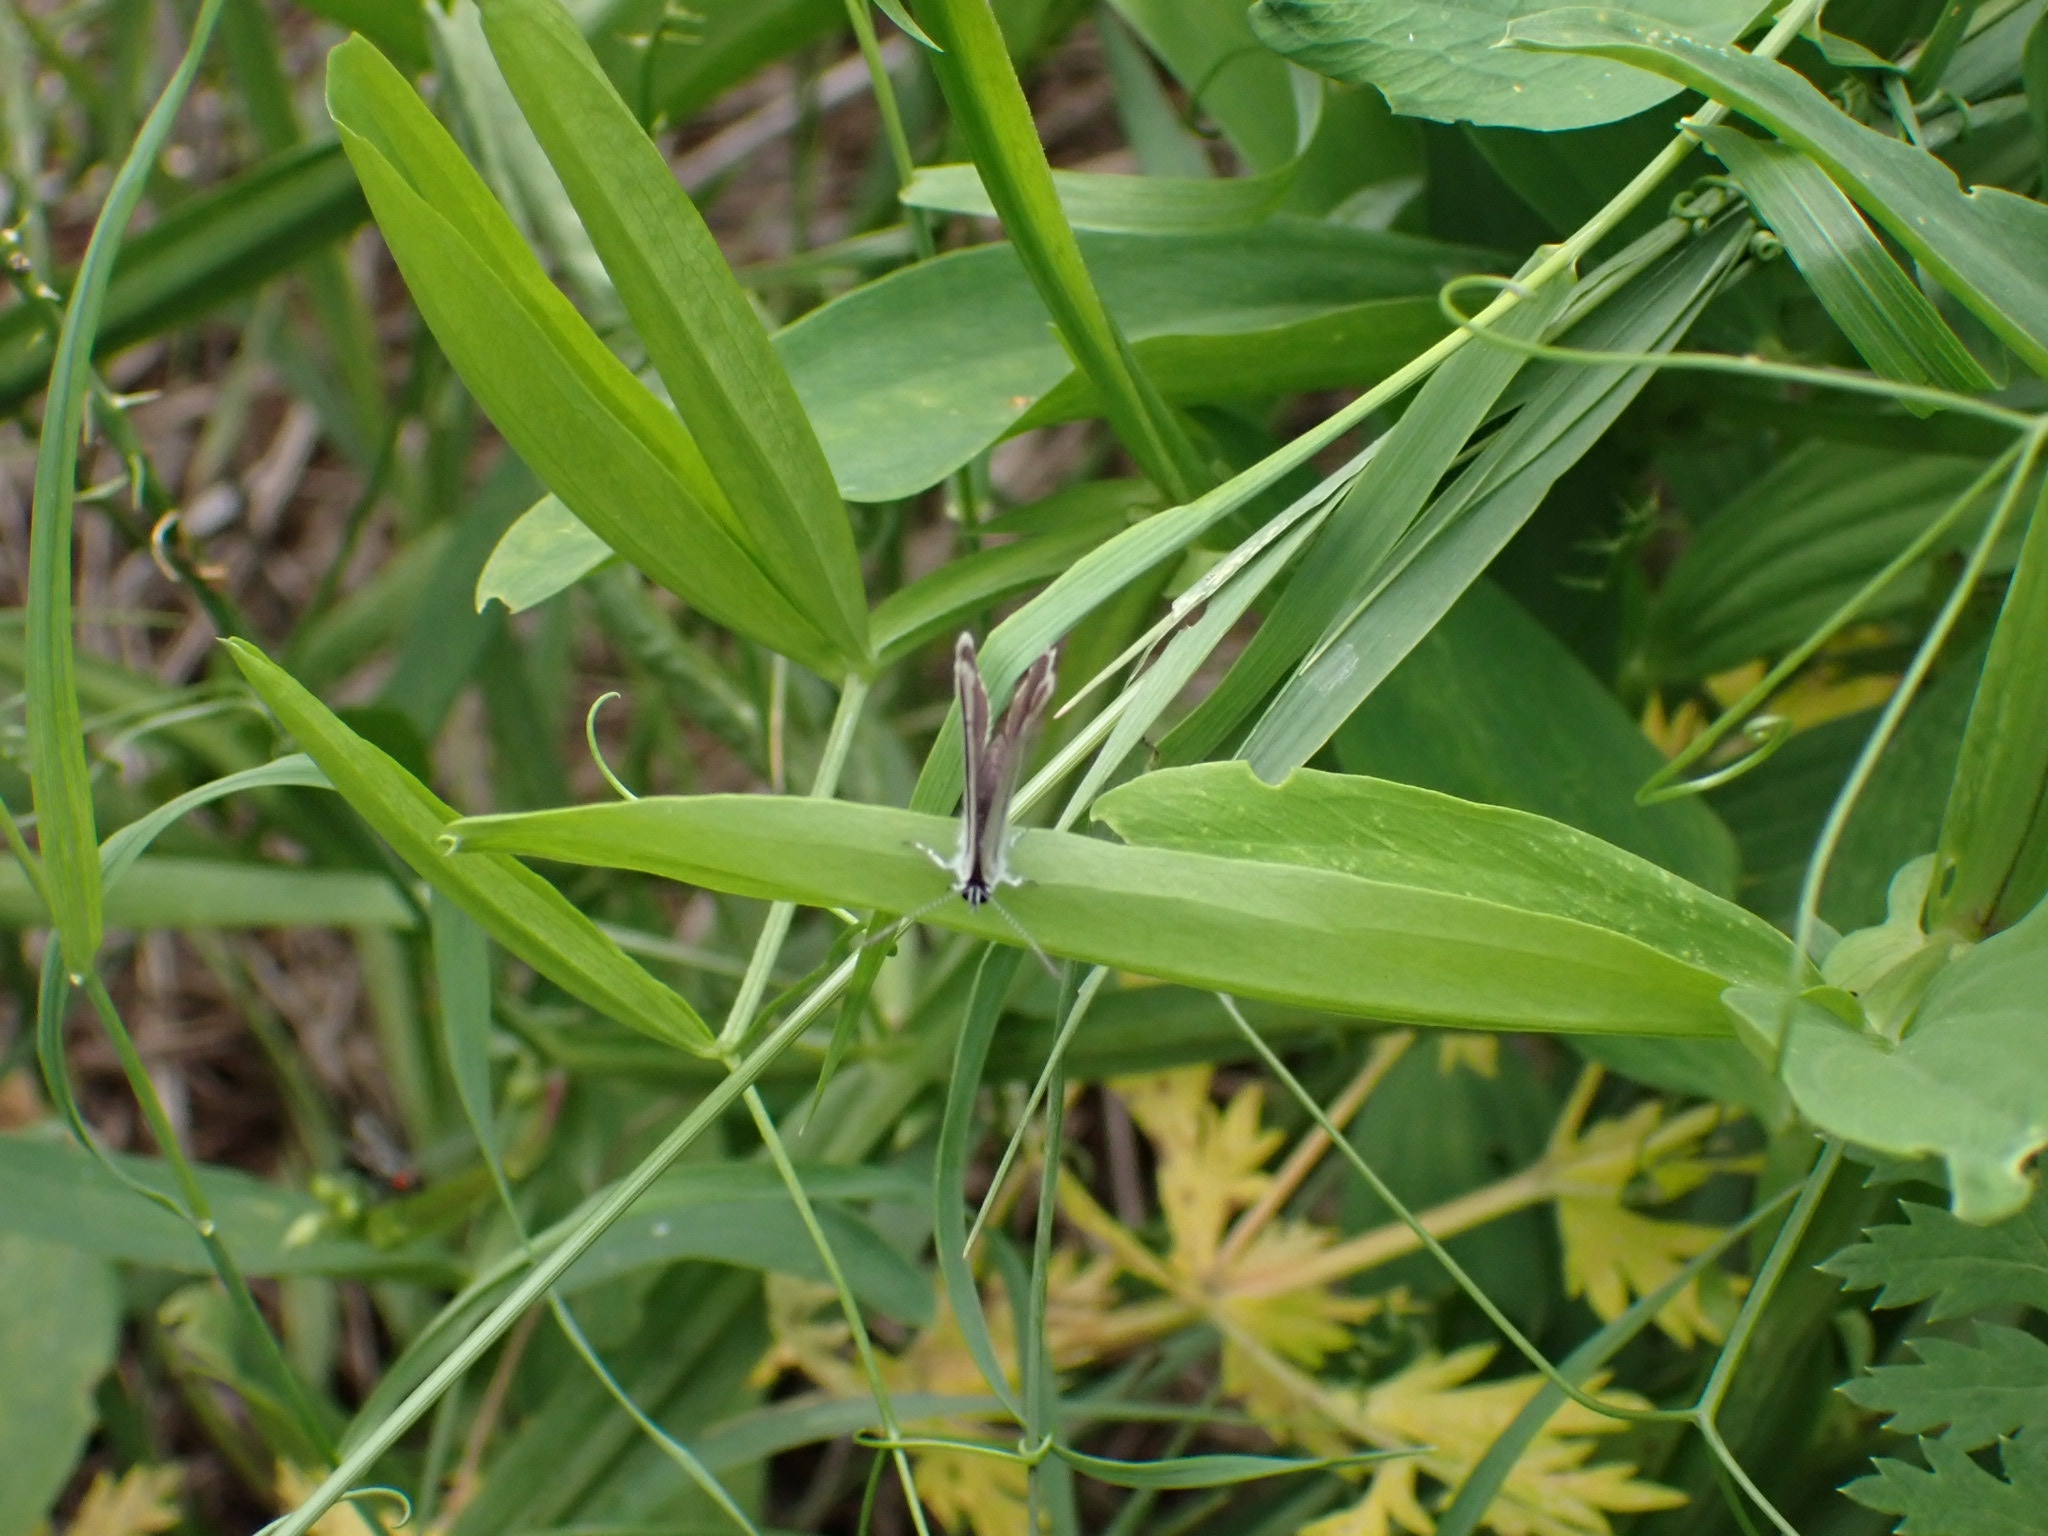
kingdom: Animalia
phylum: Arthropoda
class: Insecta
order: Lepidoptera
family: Lycaenidae
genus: Cupido
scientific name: Cupido minimus
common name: Small blue
